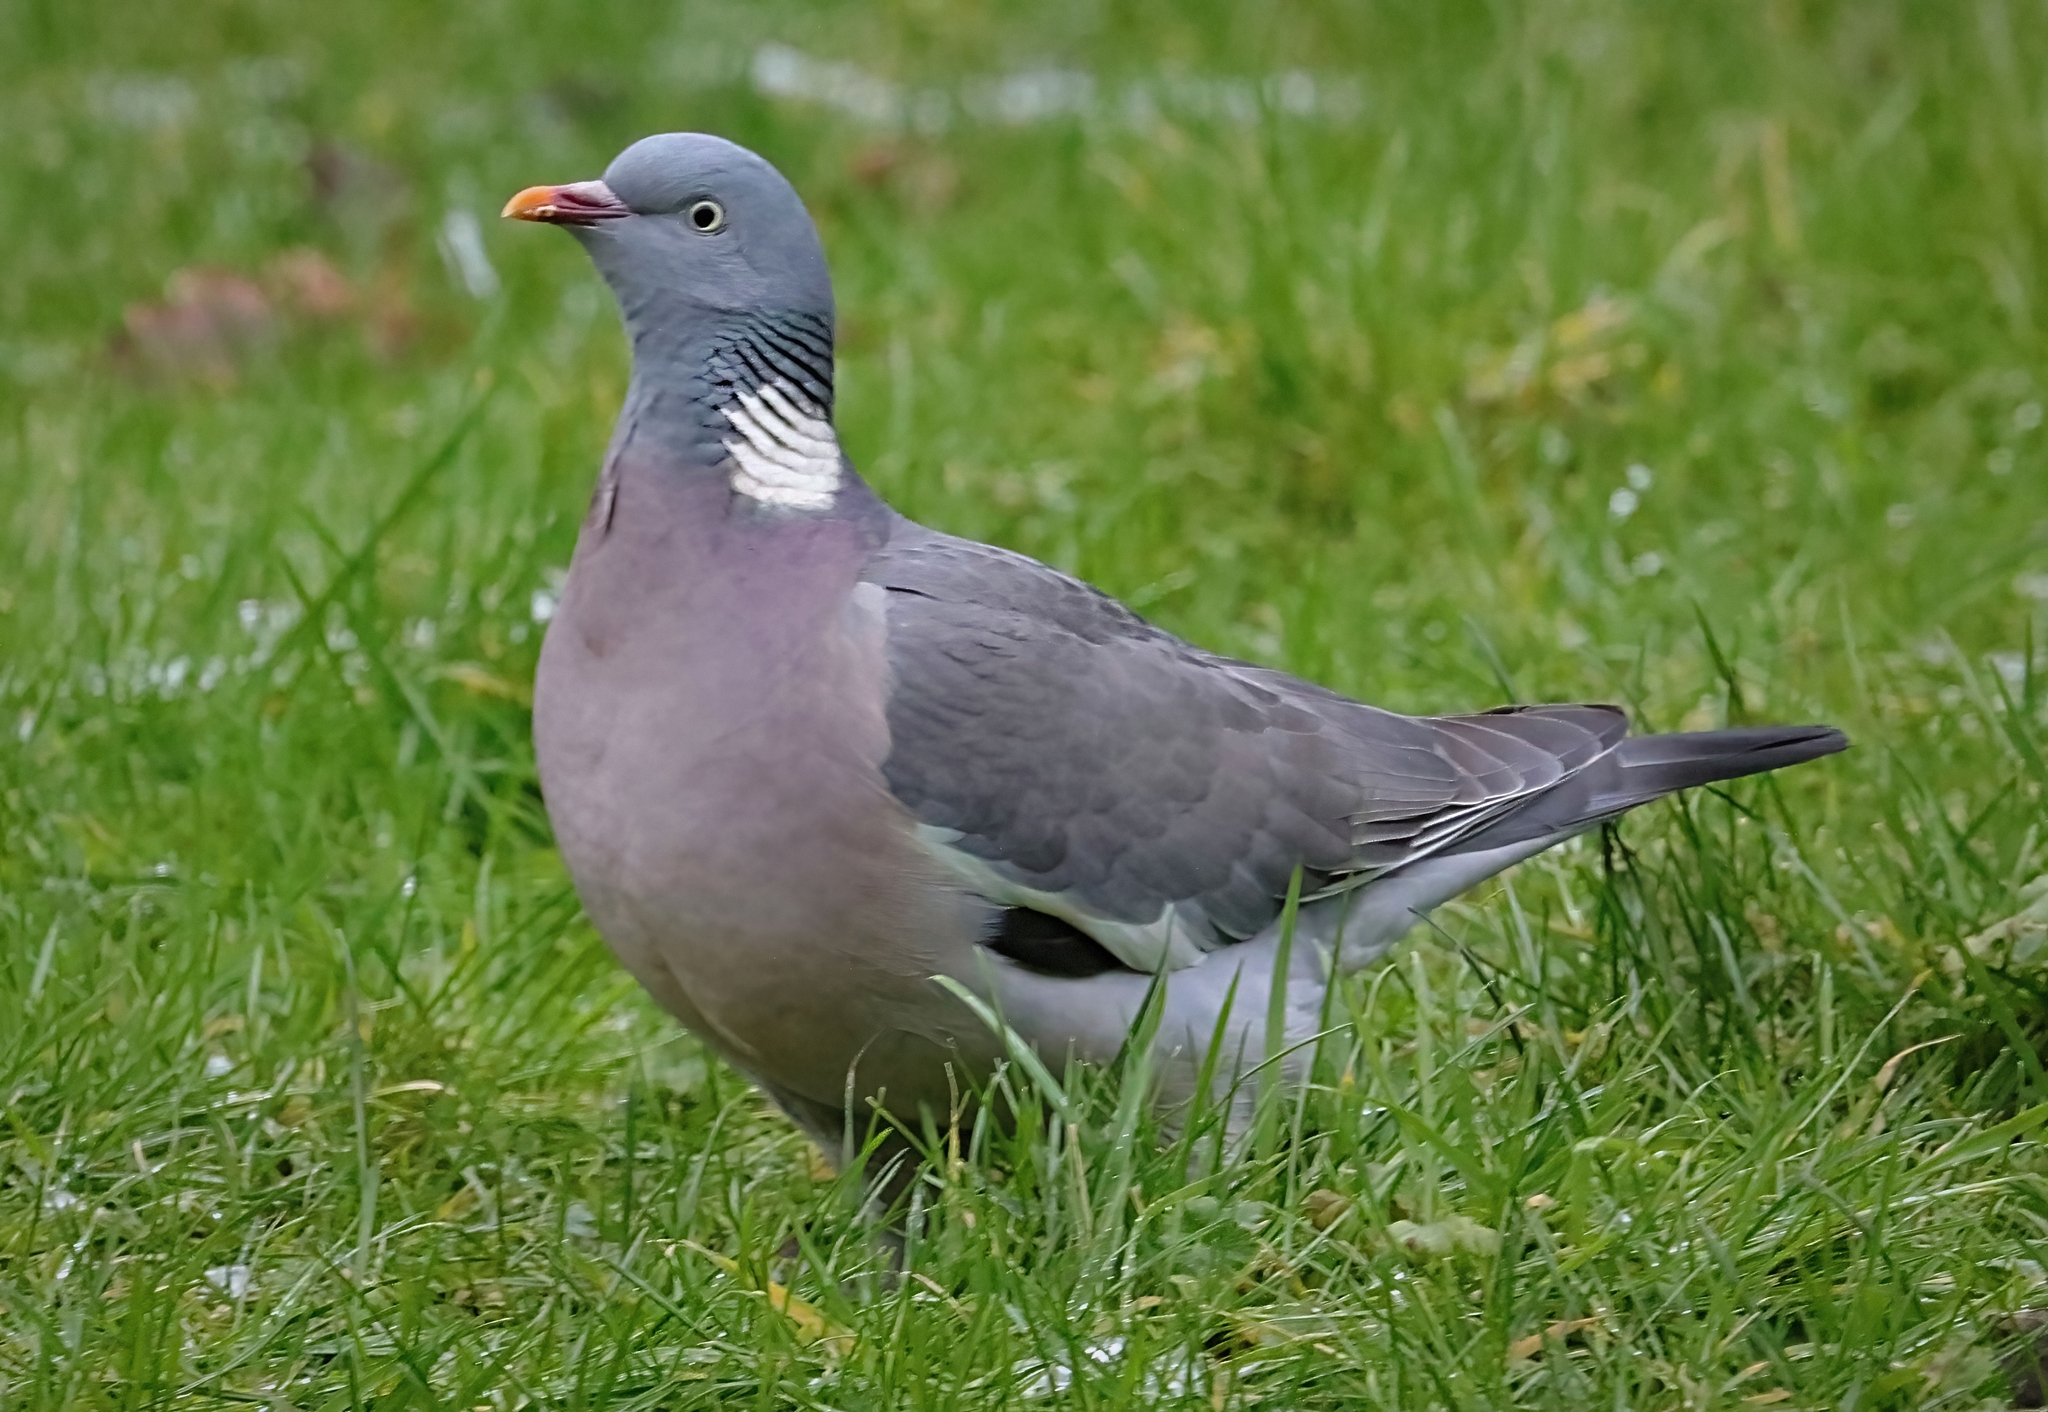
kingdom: Animalia
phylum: Chordata
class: Aves
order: Columbiformes
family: Columbidae
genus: Columba
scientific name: Columba palumbus
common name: Common wood pigeon
